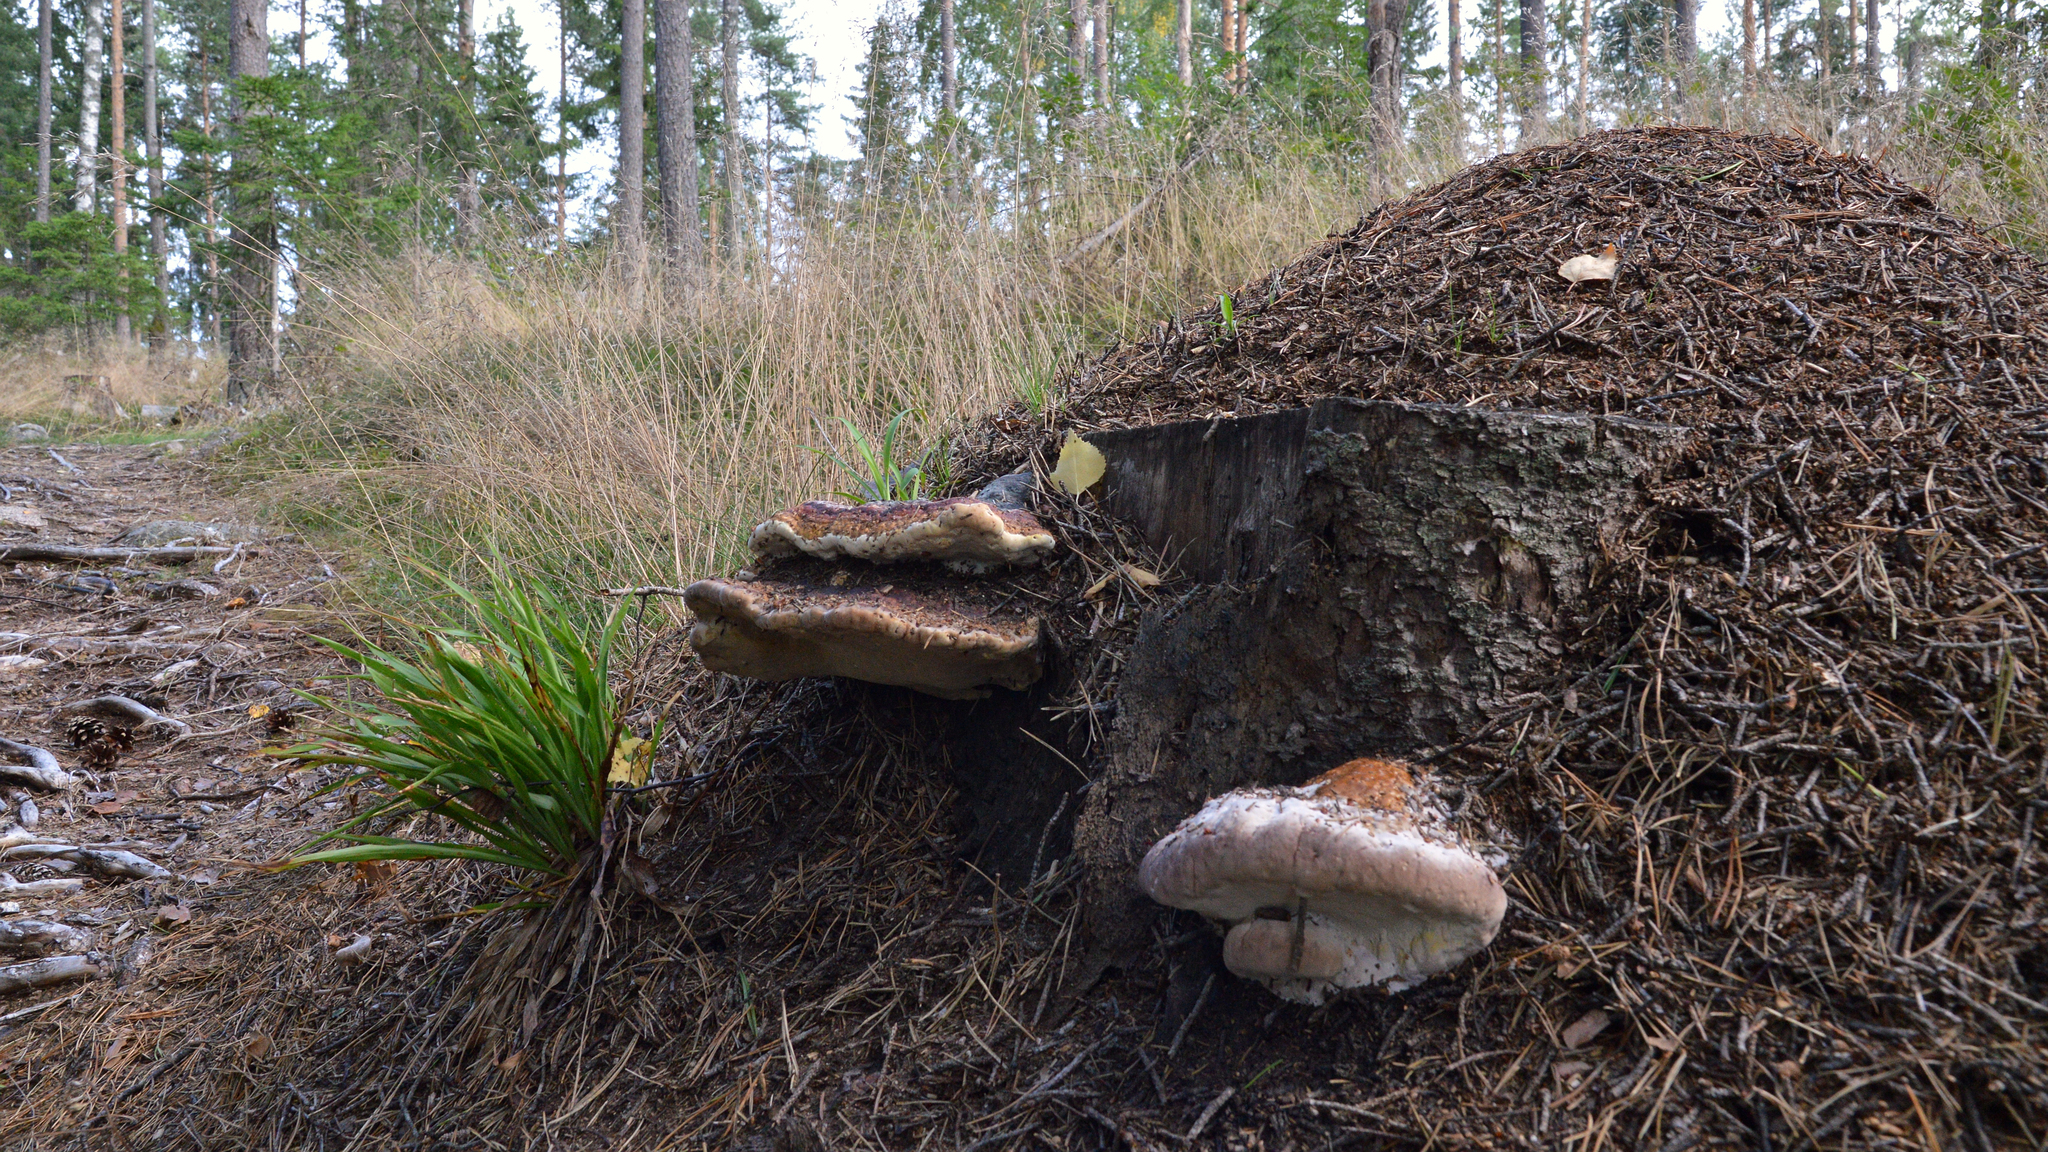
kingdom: Fungi
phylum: Basidiomycota
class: Agaricomycetes
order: Polyporales
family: Fomitopsidaceae
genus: Fomitopsis
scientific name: Fomitopsis pinicola
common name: Red-belted bracket
